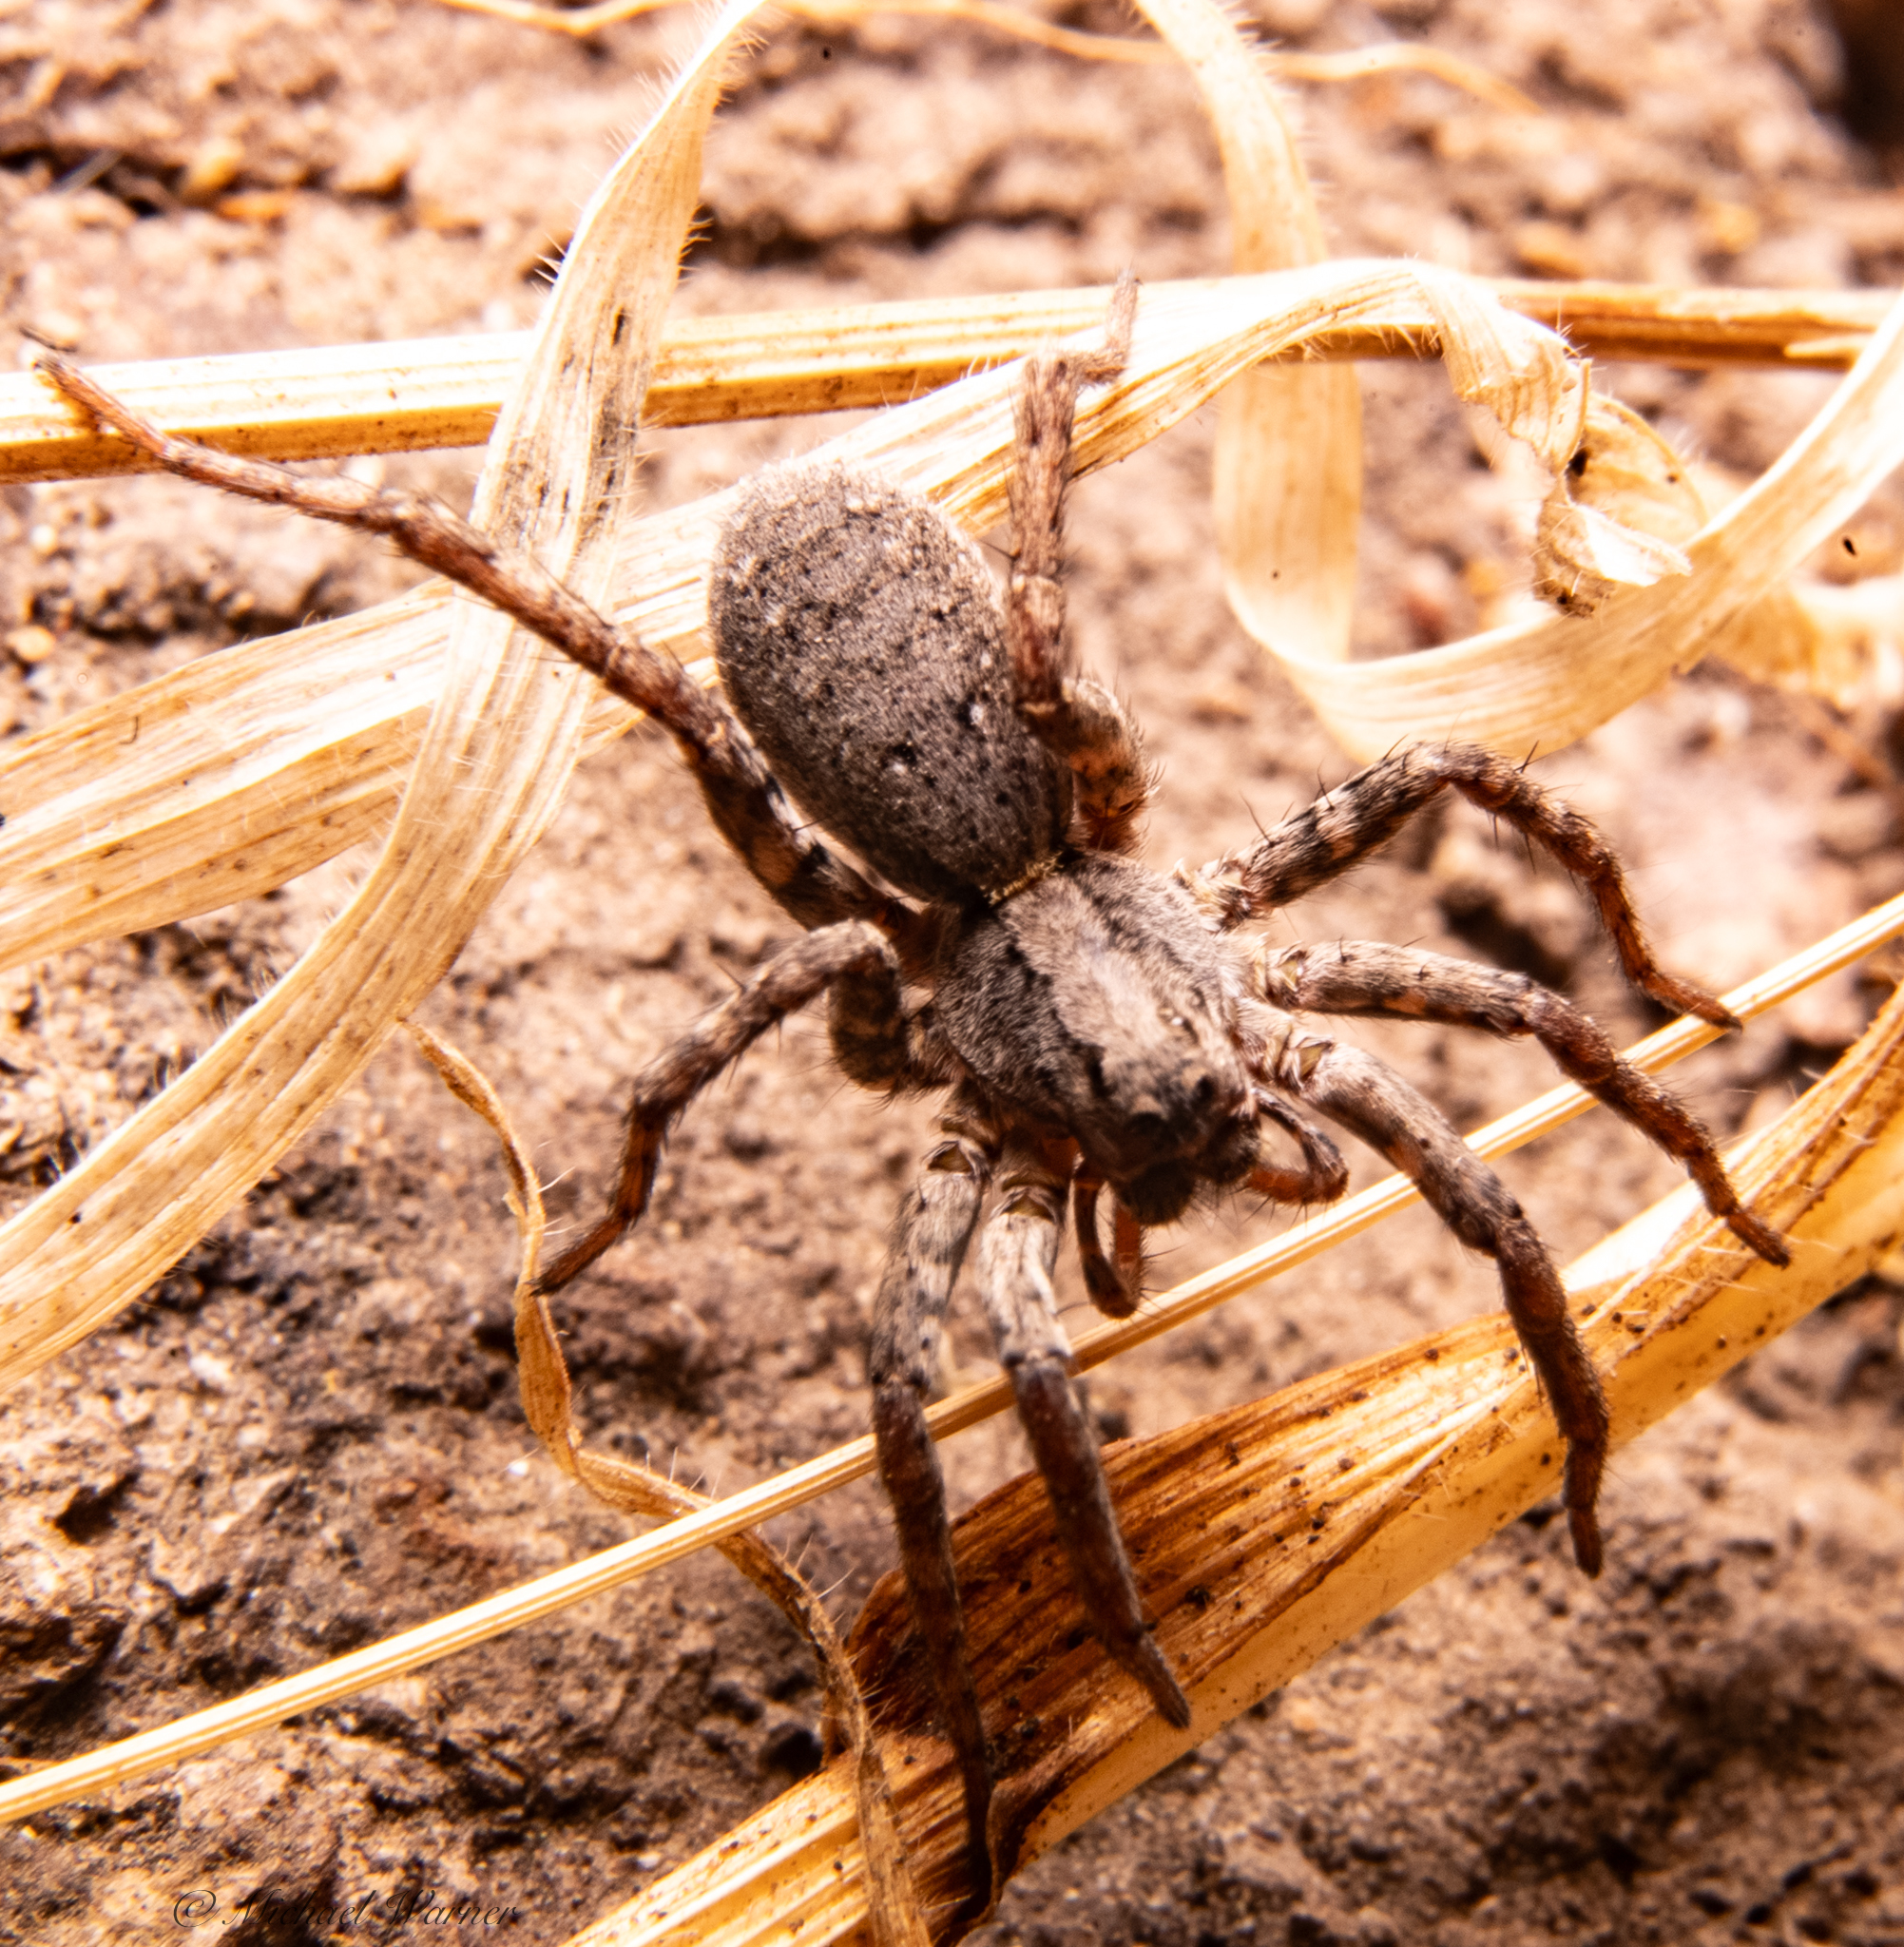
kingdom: Animalia
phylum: Arthropoda
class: Arachnida
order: Araneae
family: Lycosidae
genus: Alopecosa
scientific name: Alopecosa kochi
